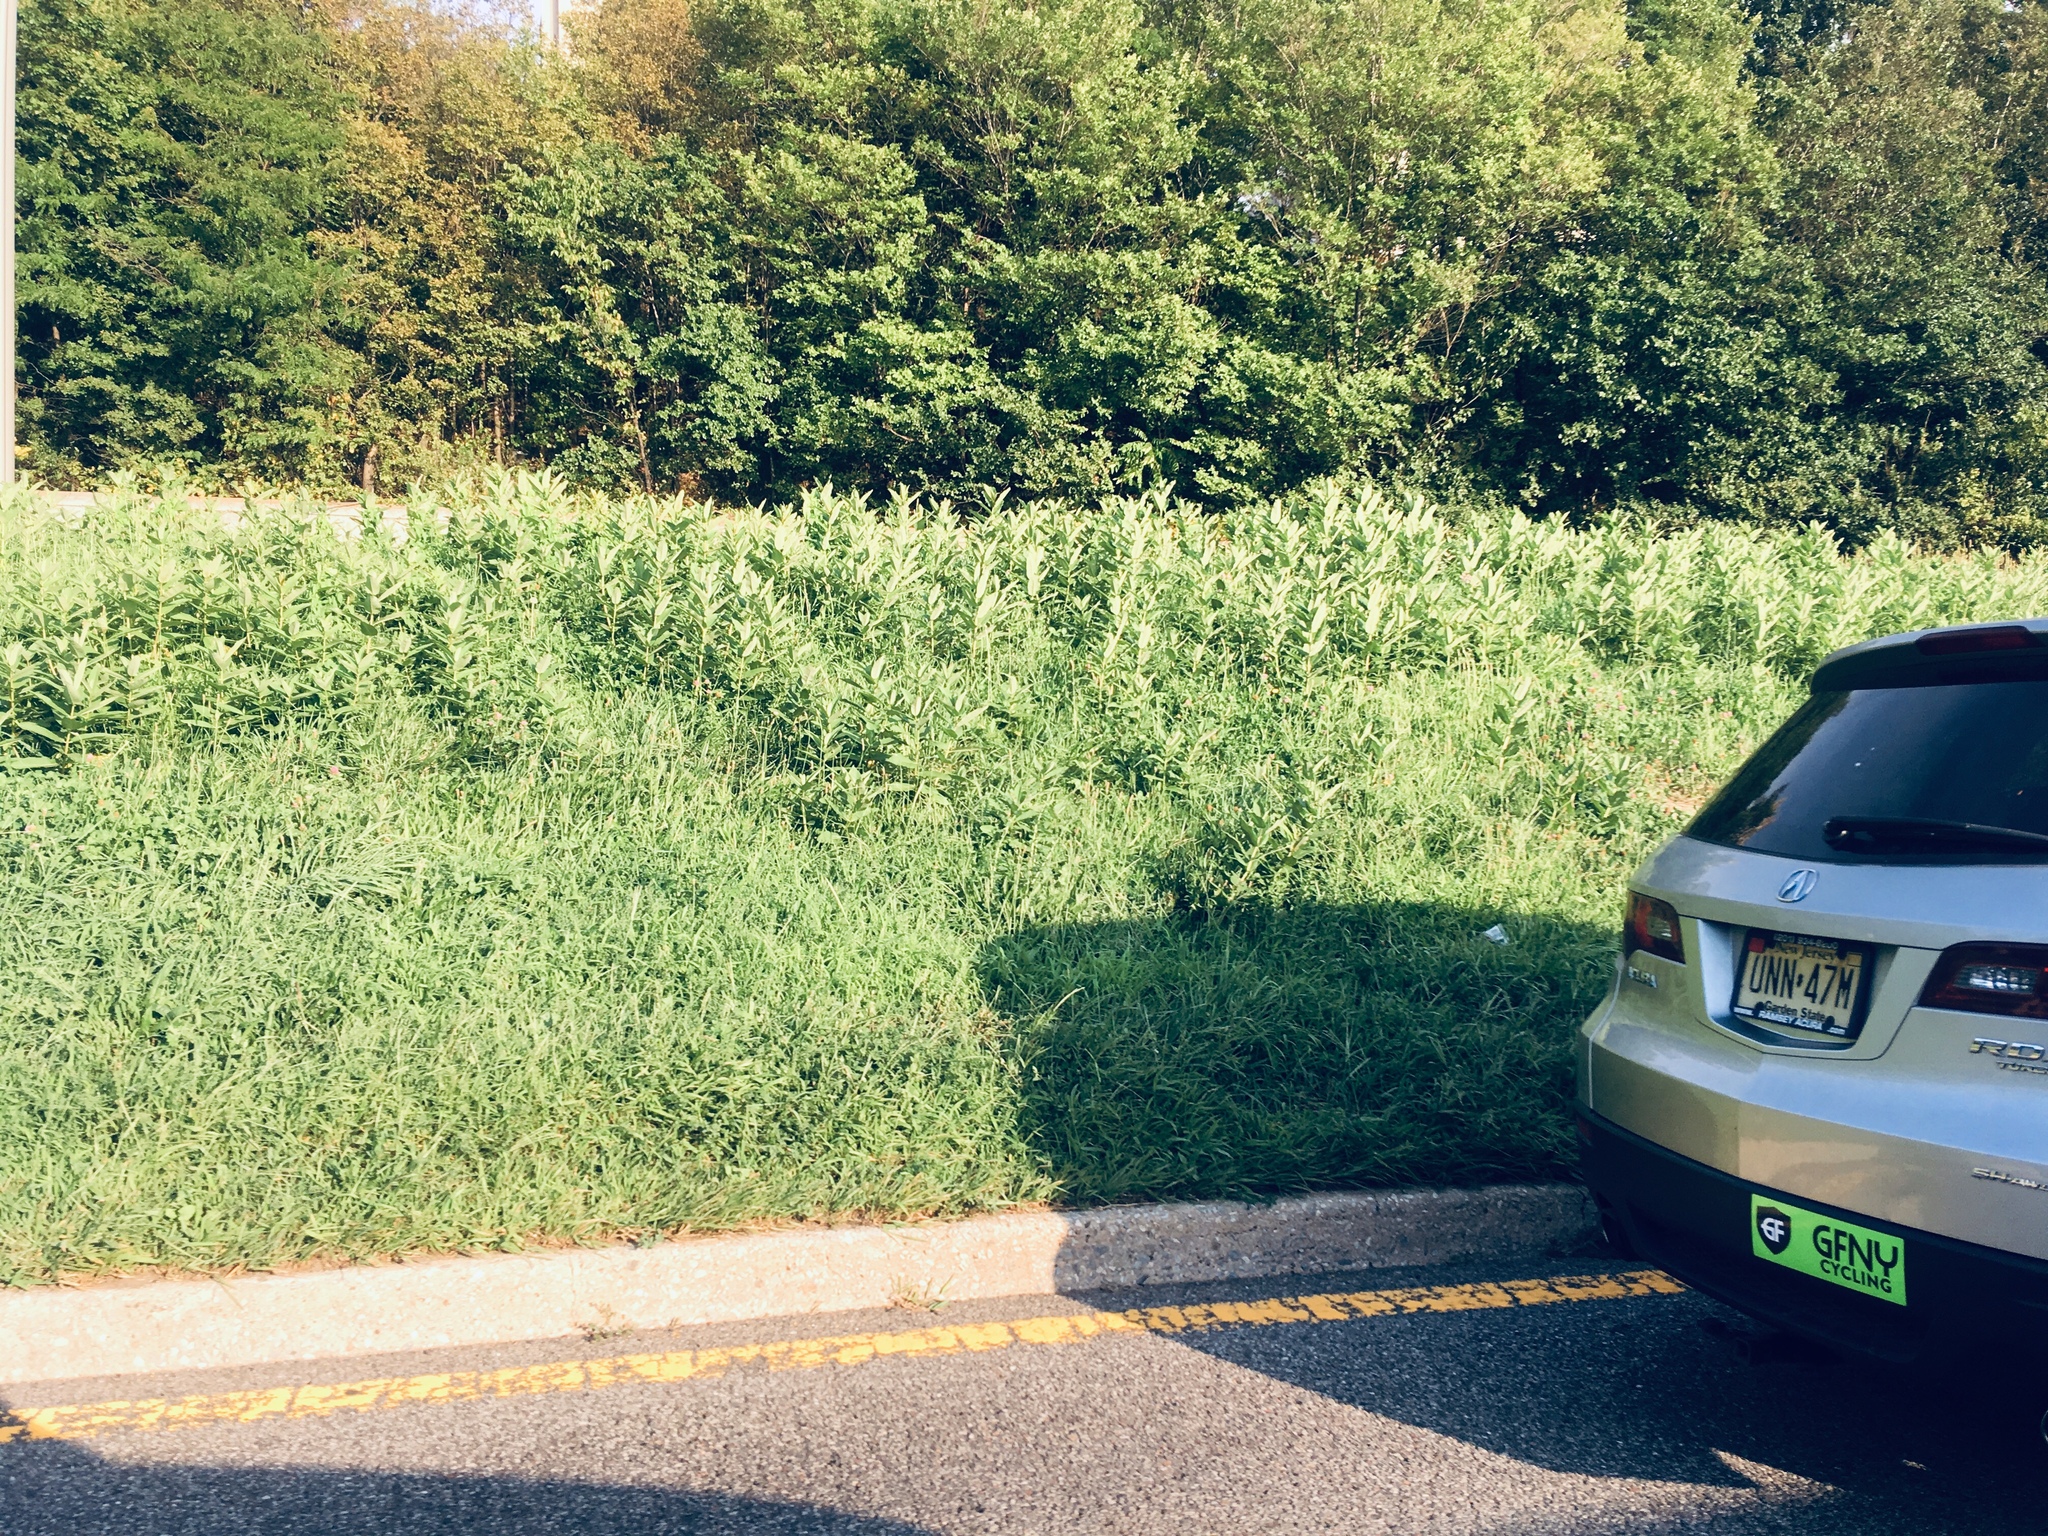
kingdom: Plantae
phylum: Tracheophyta
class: Magnoliopsida
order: Gentianales
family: Apocynaceae
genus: Asclepias
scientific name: Asclepias syriaca
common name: Common milkweed
